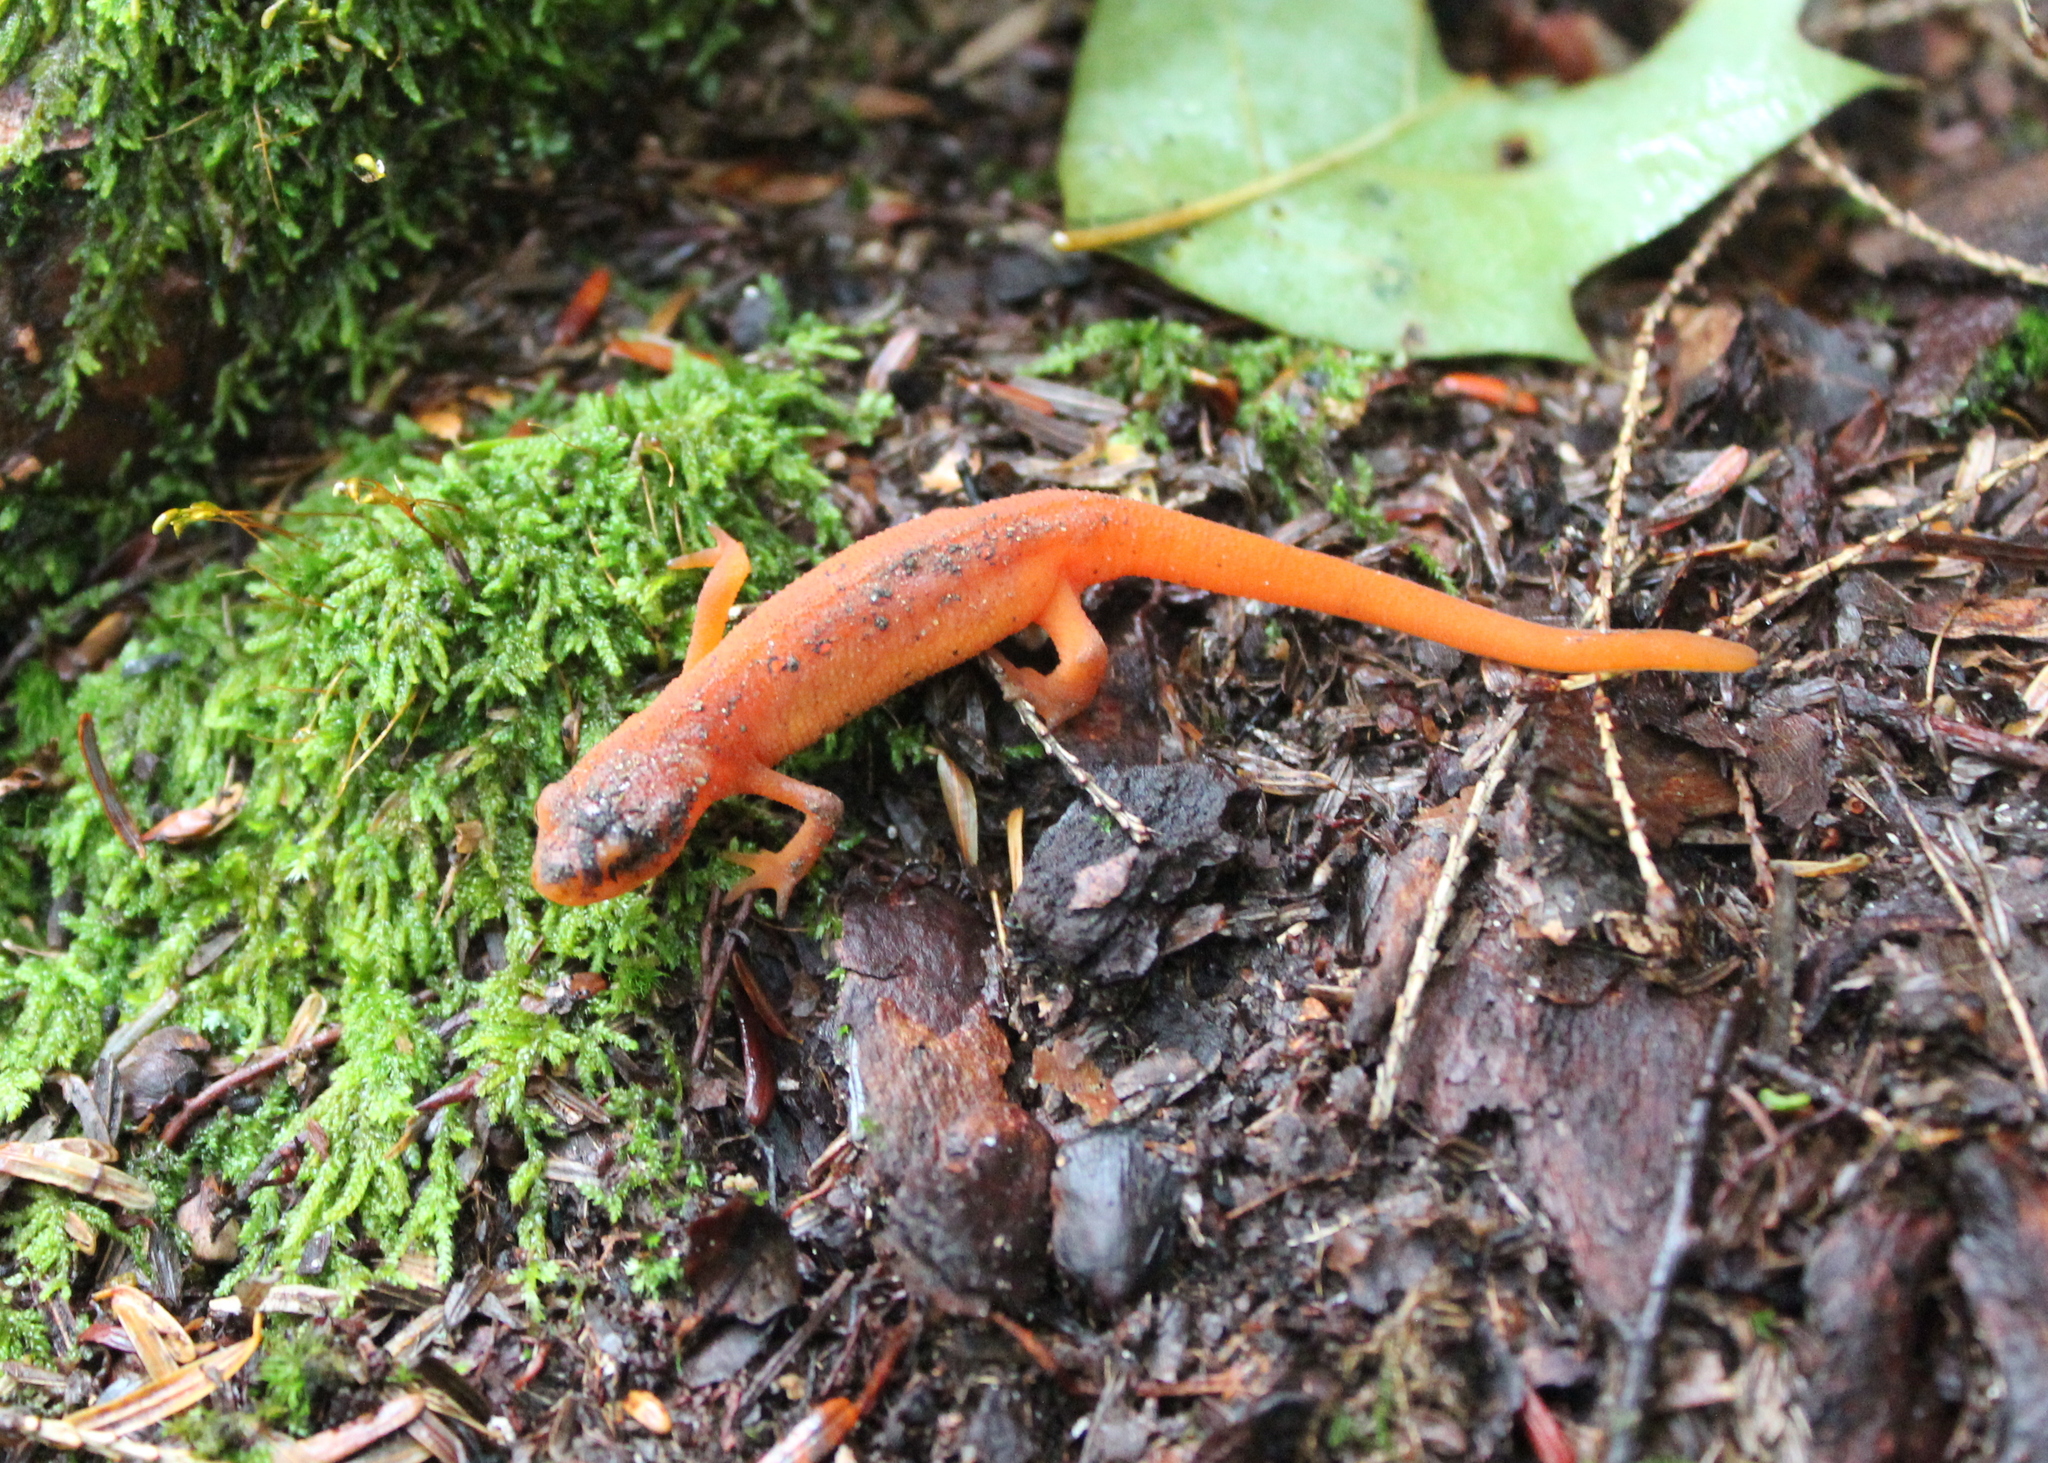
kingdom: Animalia
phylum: Chordata
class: Amphibia
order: Caudata
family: Salamandridae
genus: Notophthalmus
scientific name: Notophthalmus viridescens
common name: Eastern newt
